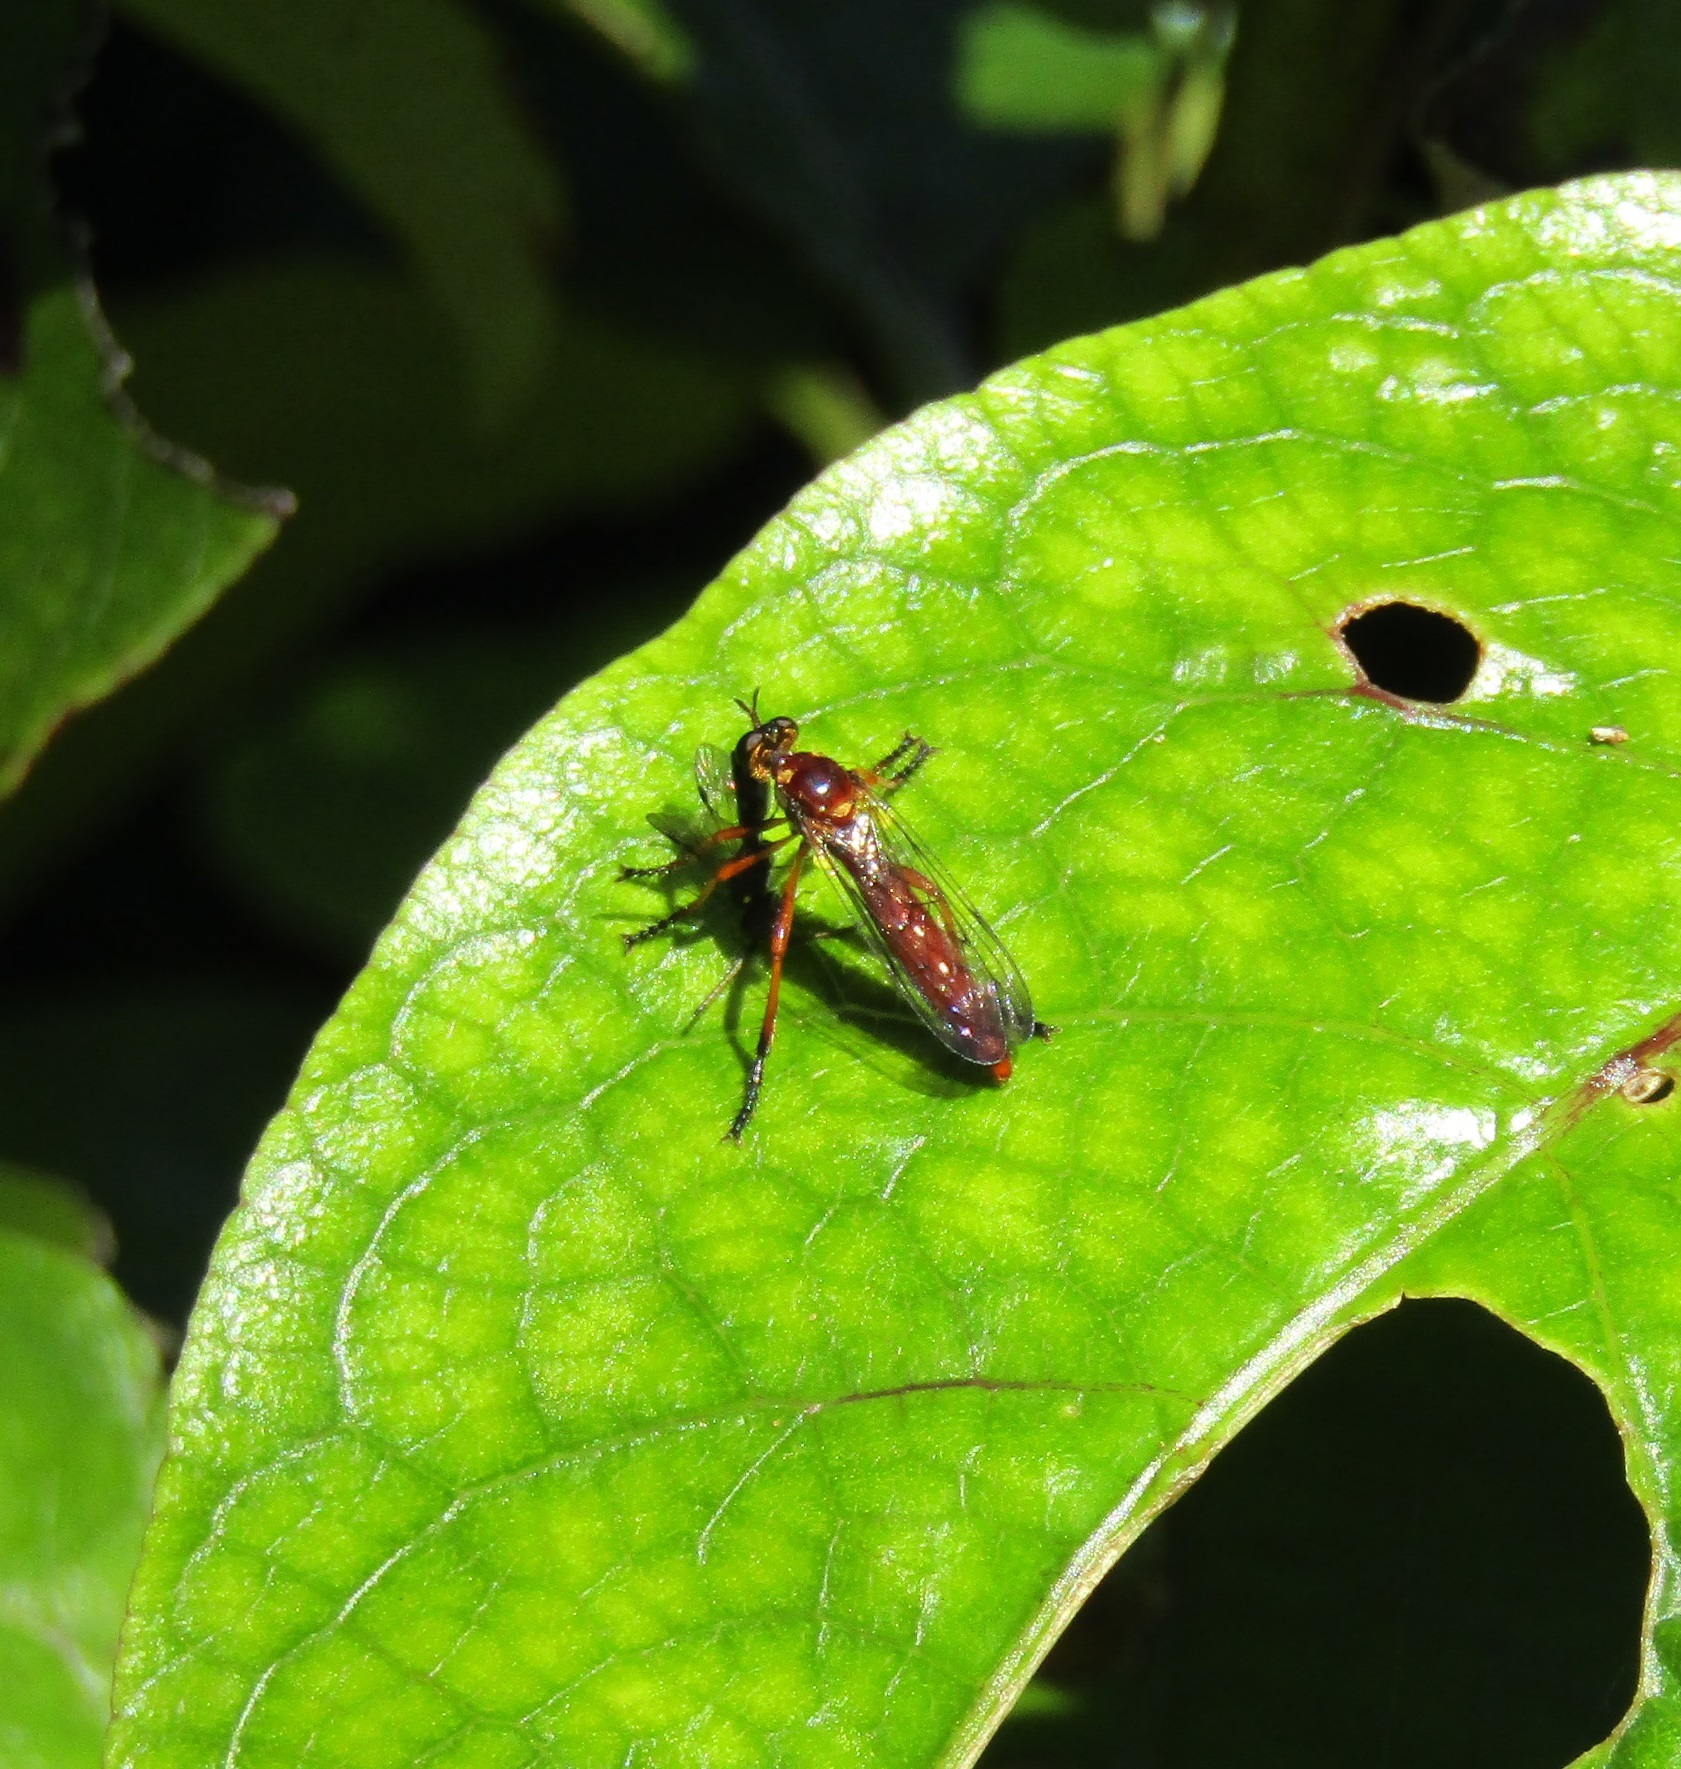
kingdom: Animalia
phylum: Arthropoda
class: Insecta
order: Diptera
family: Asilidae
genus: Saropogon
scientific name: Saropogon antipodus
